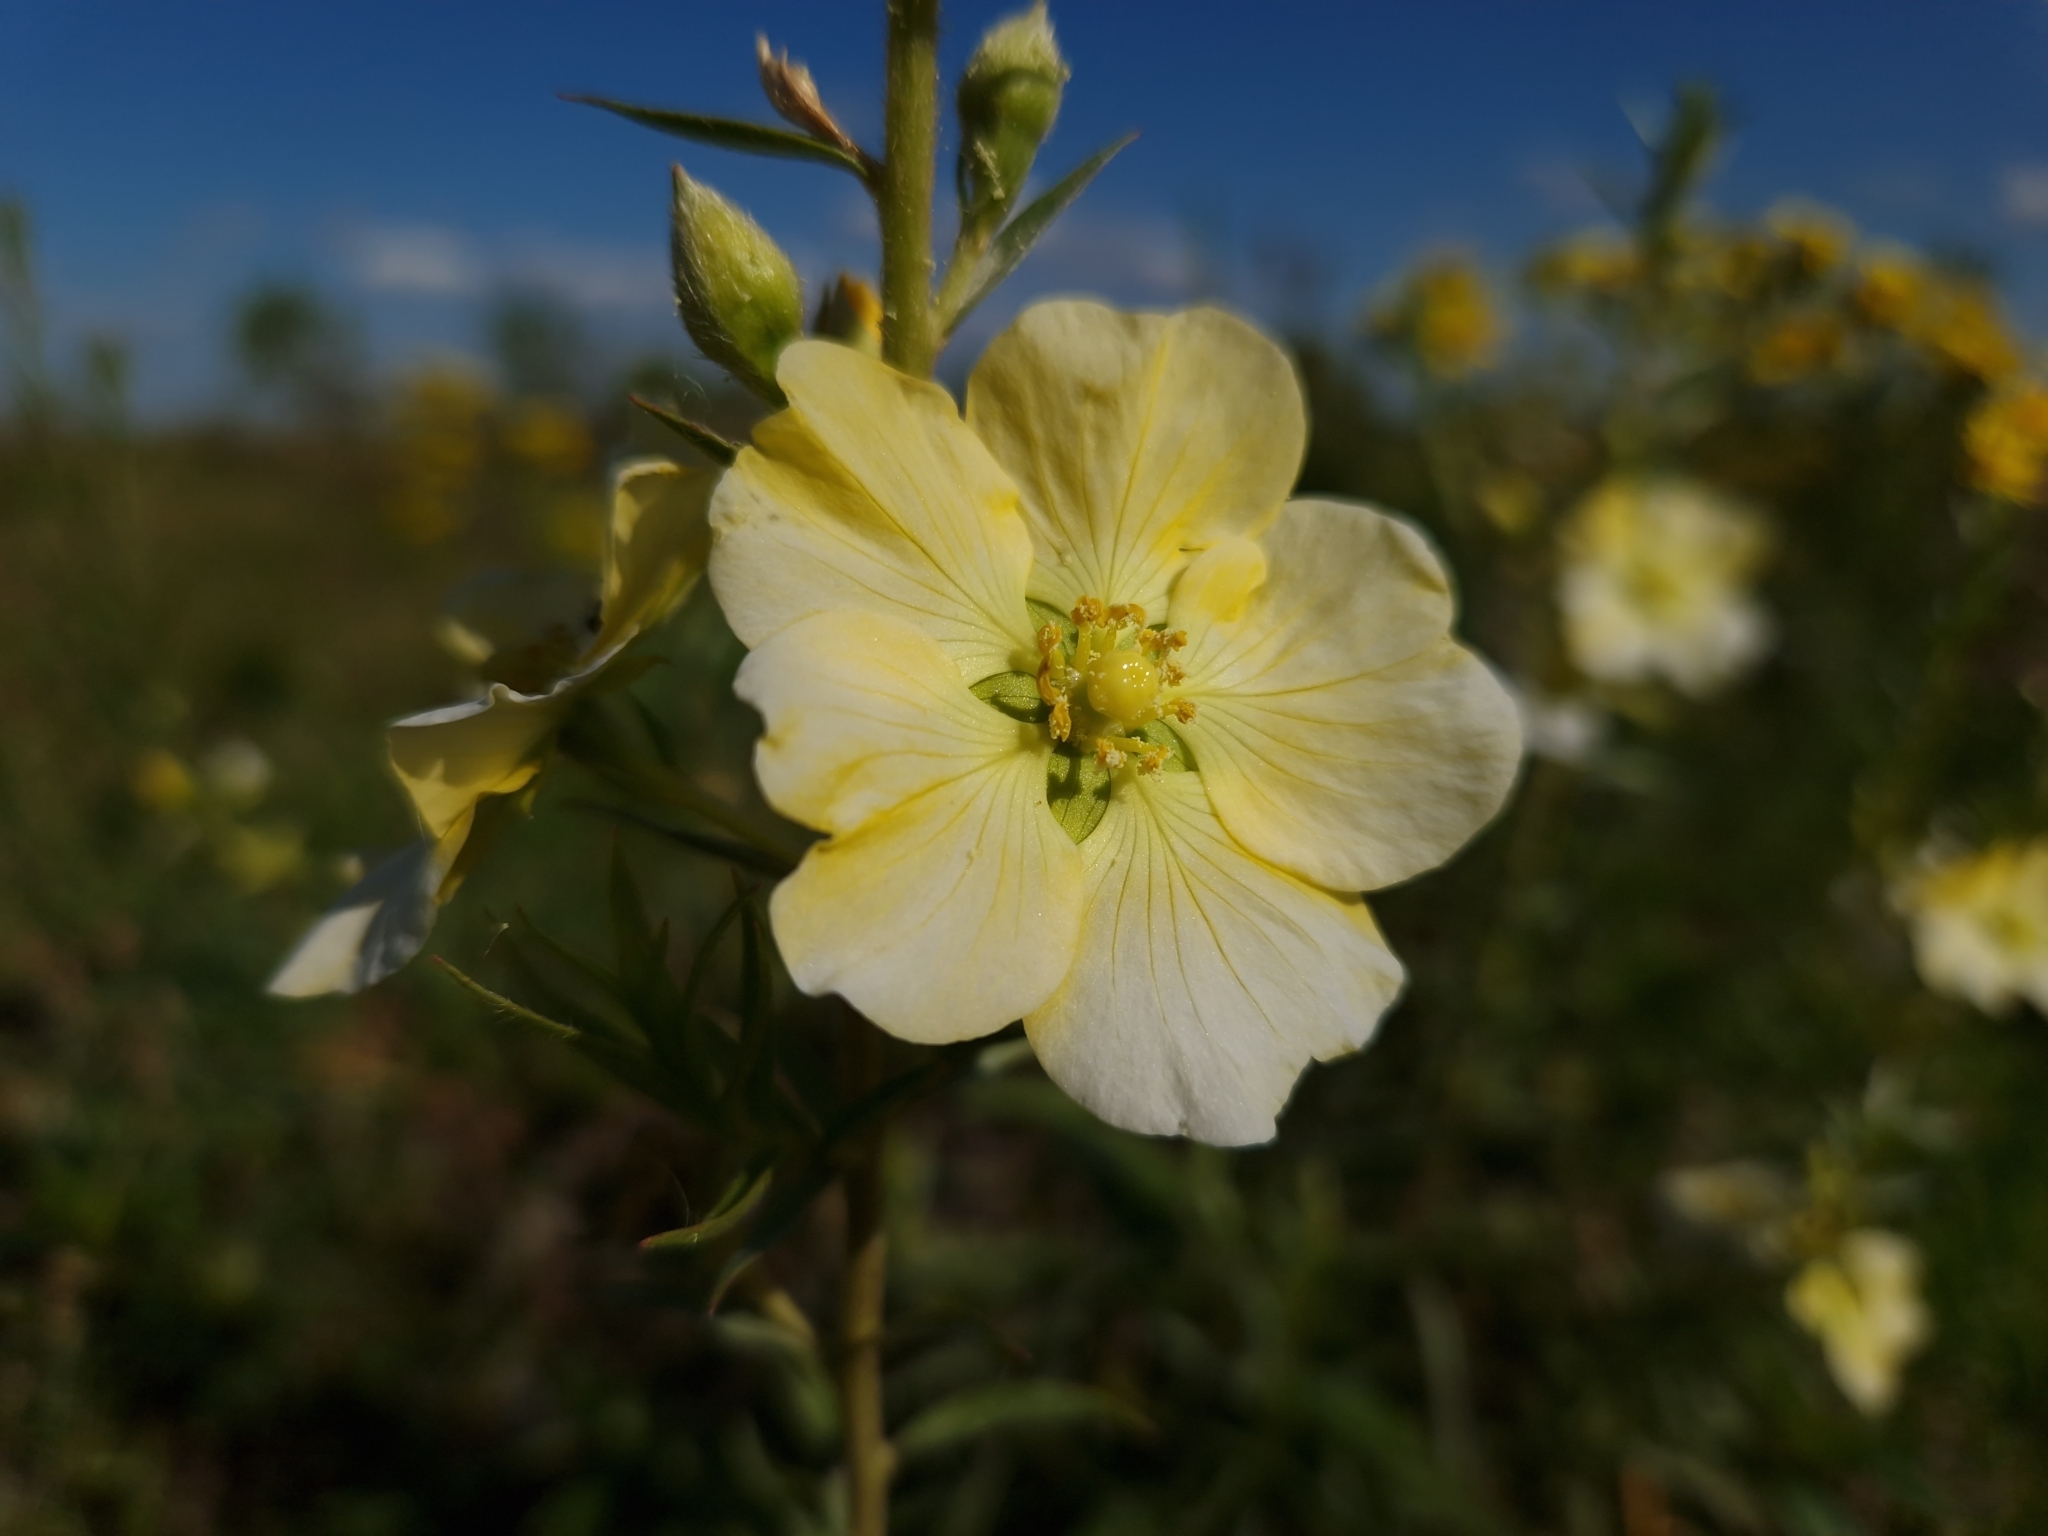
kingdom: Plantae
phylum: Tracheophyta
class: Magnoliopsida
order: Myrtales
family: Onagraceae
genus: Ludwigia
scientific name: Ludwigia sericea
